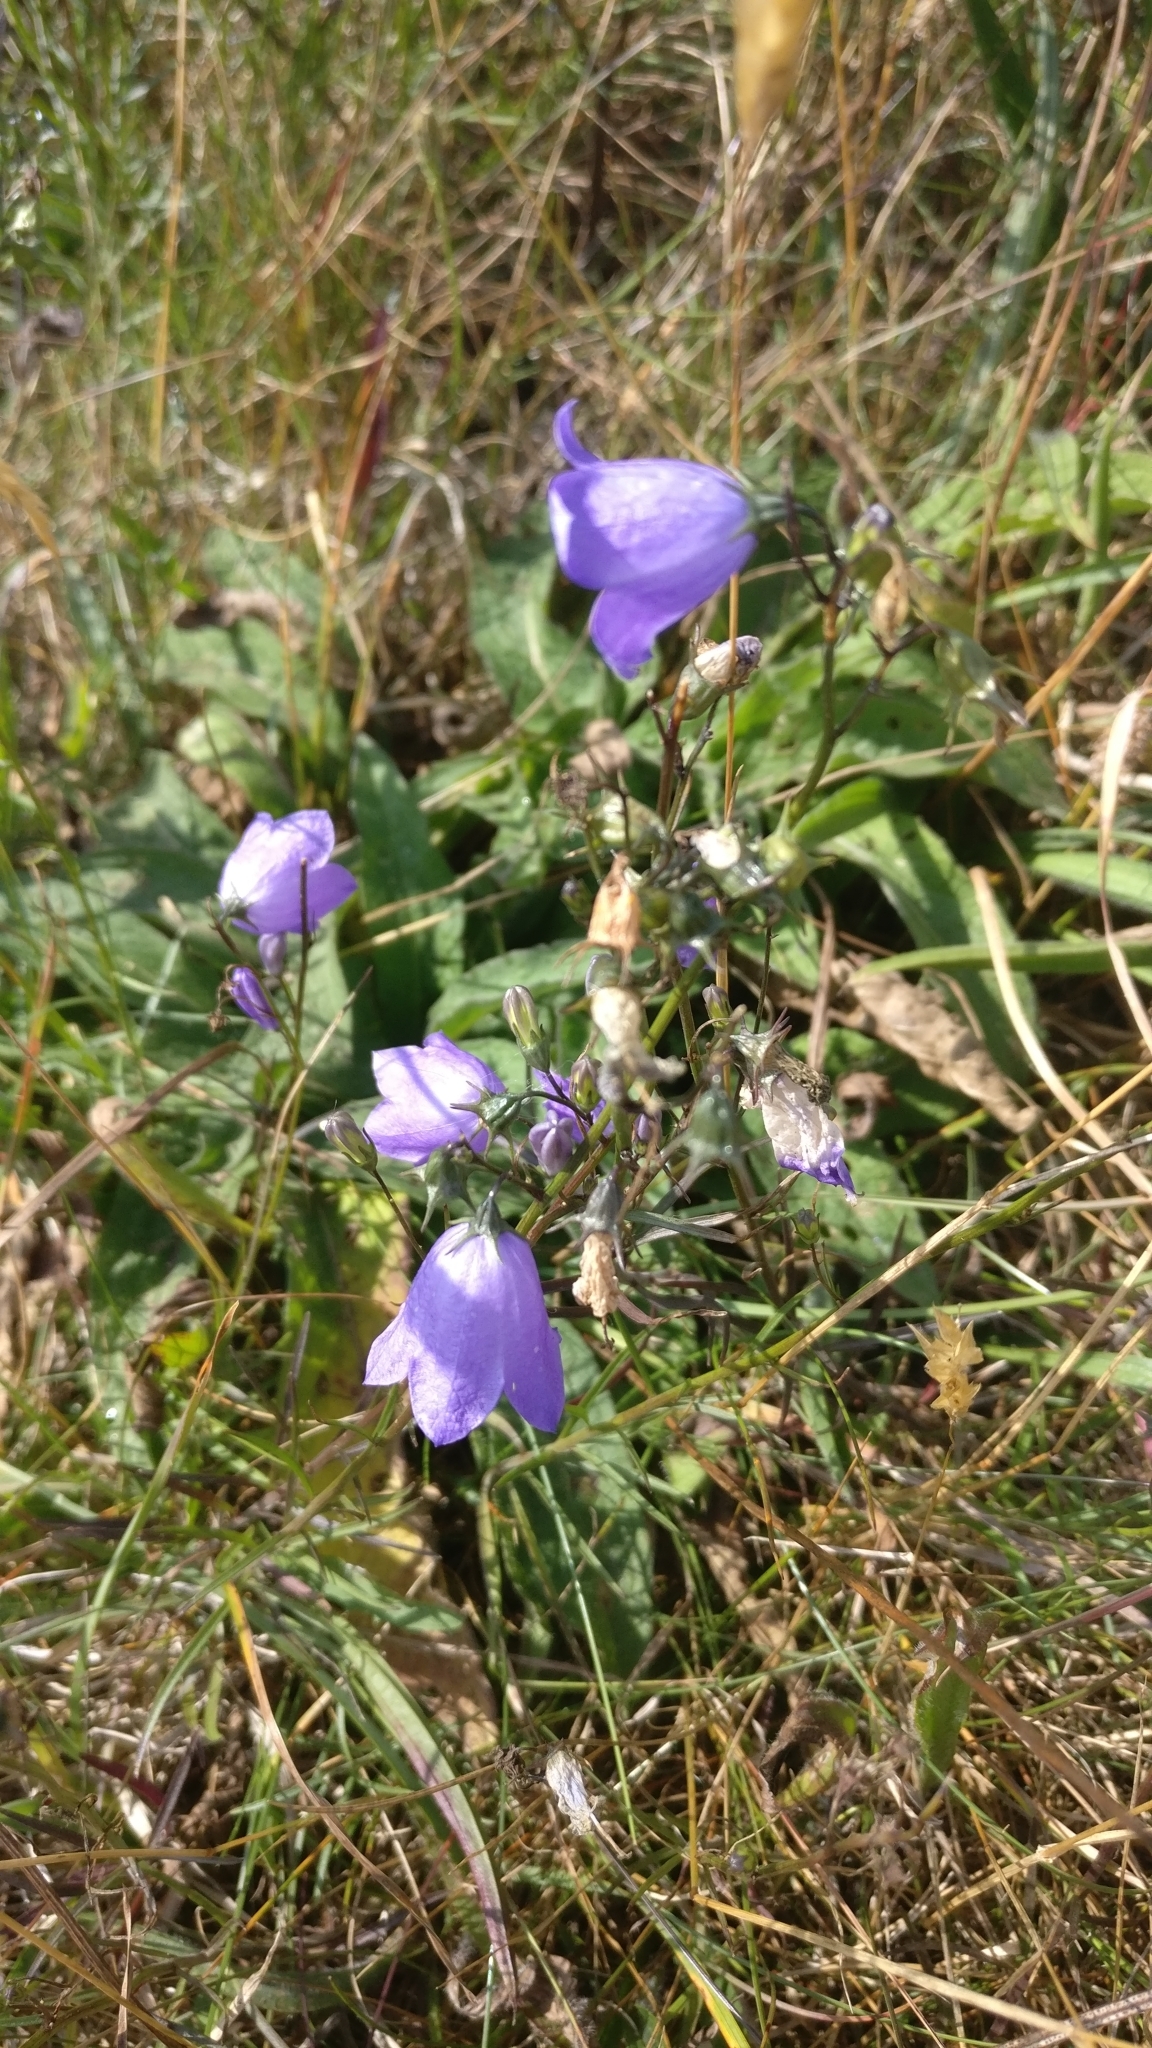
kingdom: Plantae
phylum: Tracheophyta
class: Magnoliopsida
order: Asterales
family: Campanulaceae
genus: Campanula
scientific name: Campanula rotundifolia
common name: Harebell
